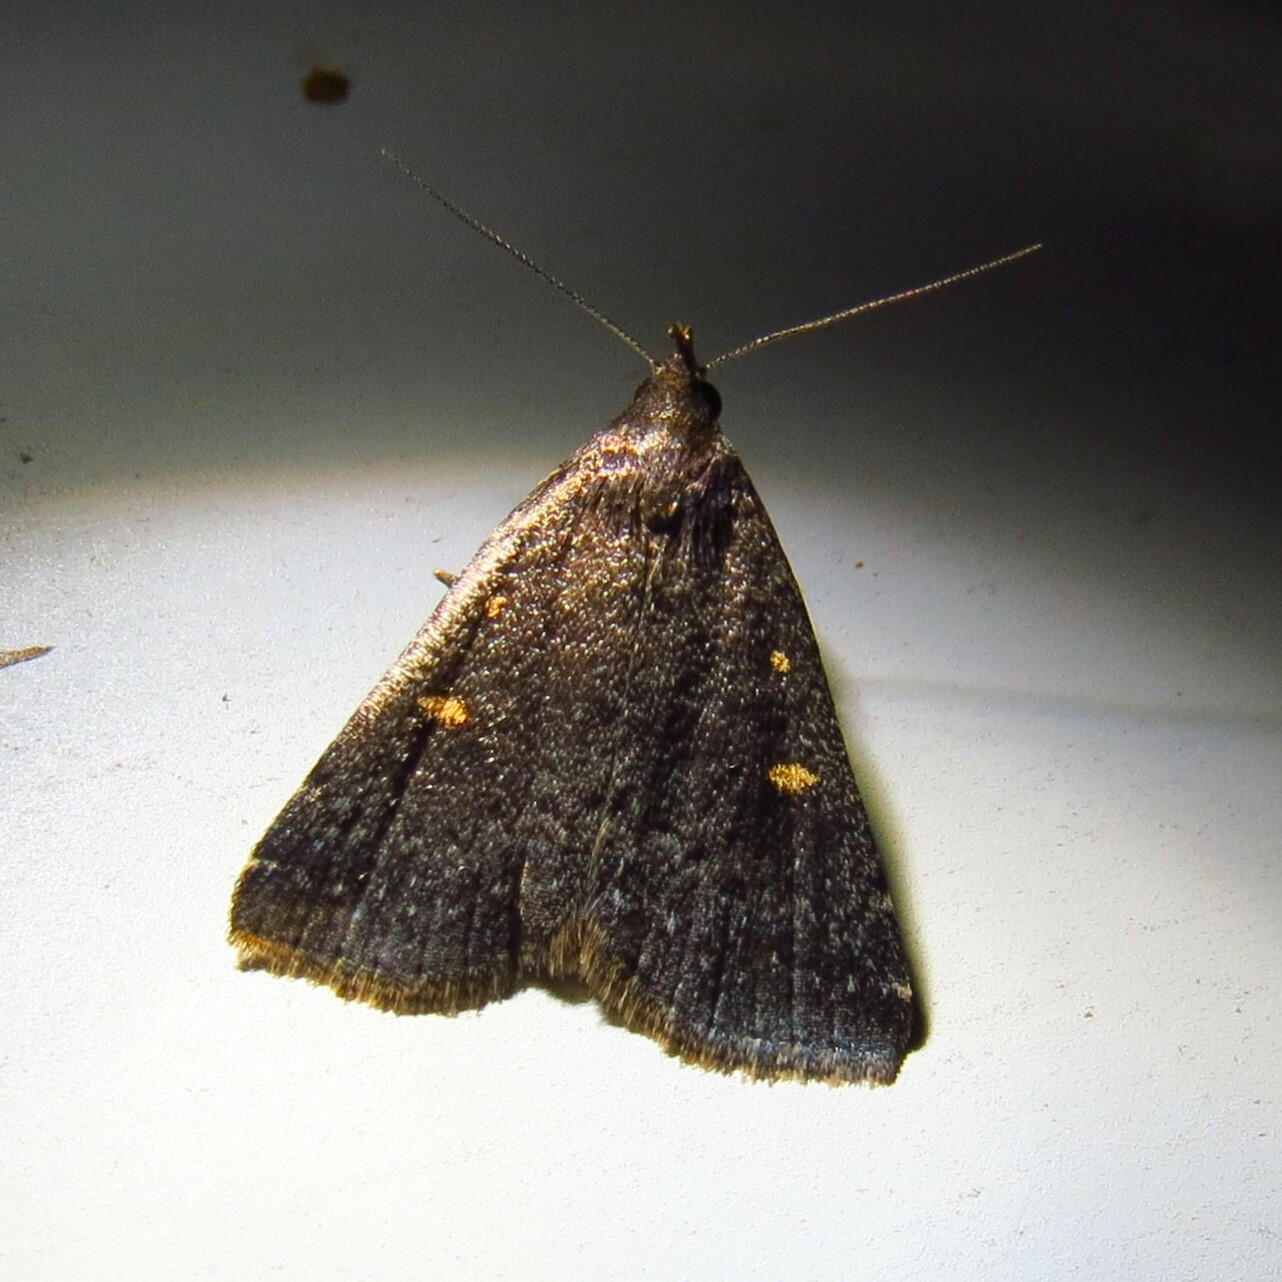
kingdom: Animalia
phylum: Arthropoda
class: Insecta
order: Lepidoptera
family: Erebidae
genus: Tetanolita
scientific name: Tetanolita mynesalis
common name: Smoky tetanolita moth
